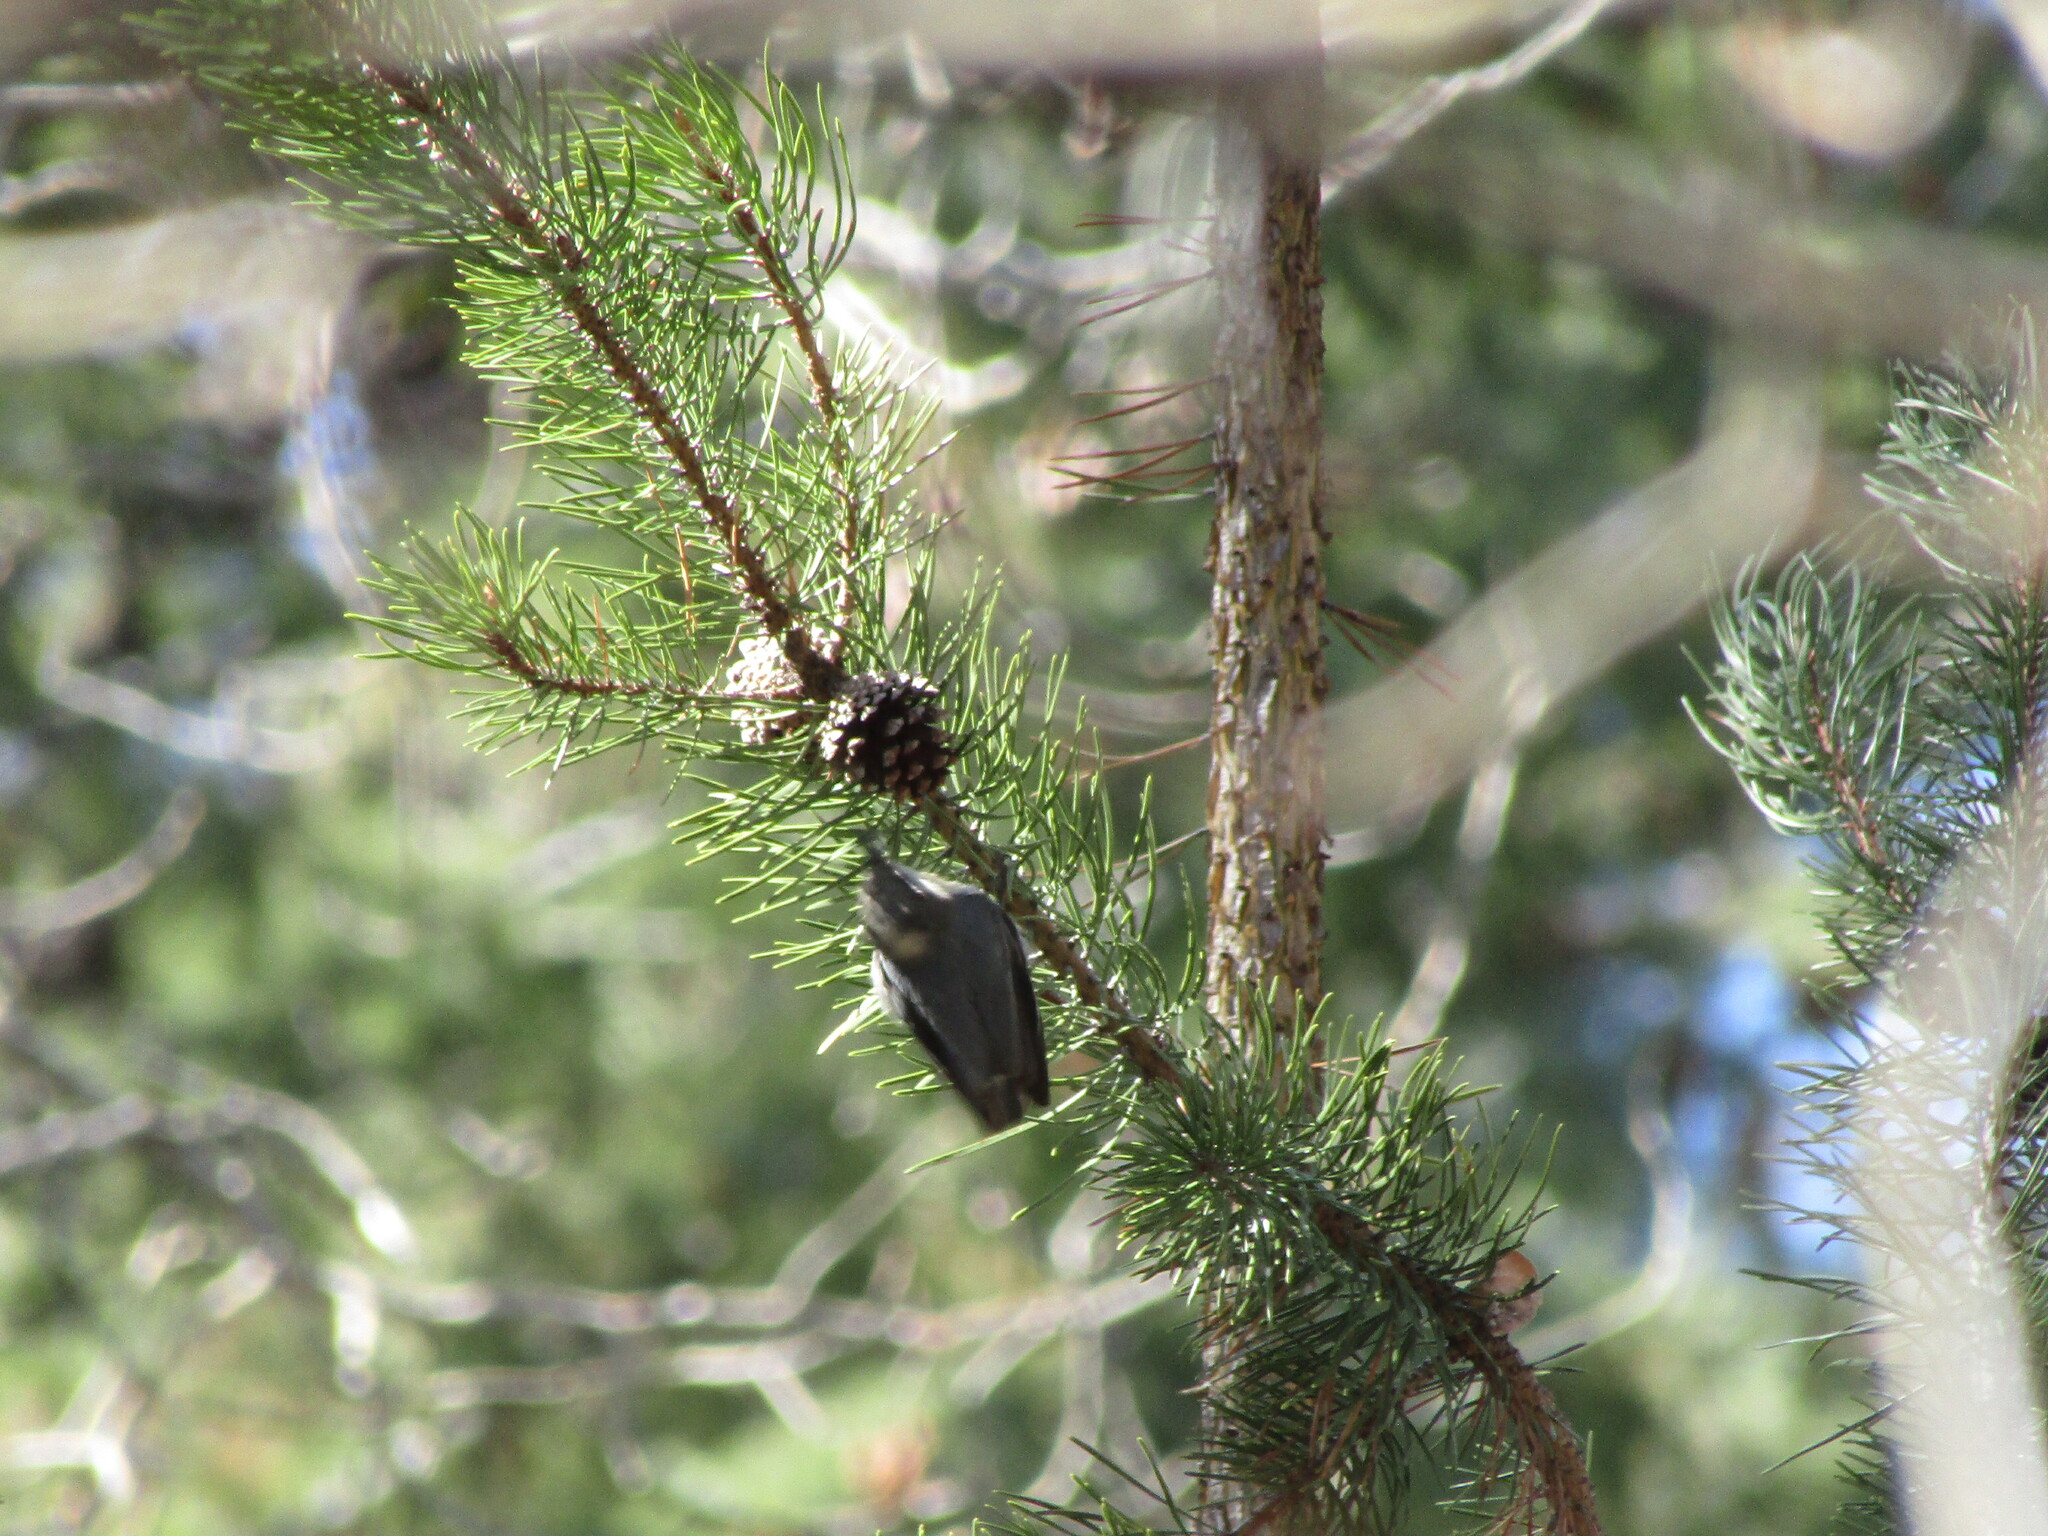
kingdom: Animalia
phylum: Chordata
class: Aves
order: Passeriformes
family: Sittidae
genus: Sitta
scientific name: Sitta pygmaea
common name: Pygmy nuthatch
